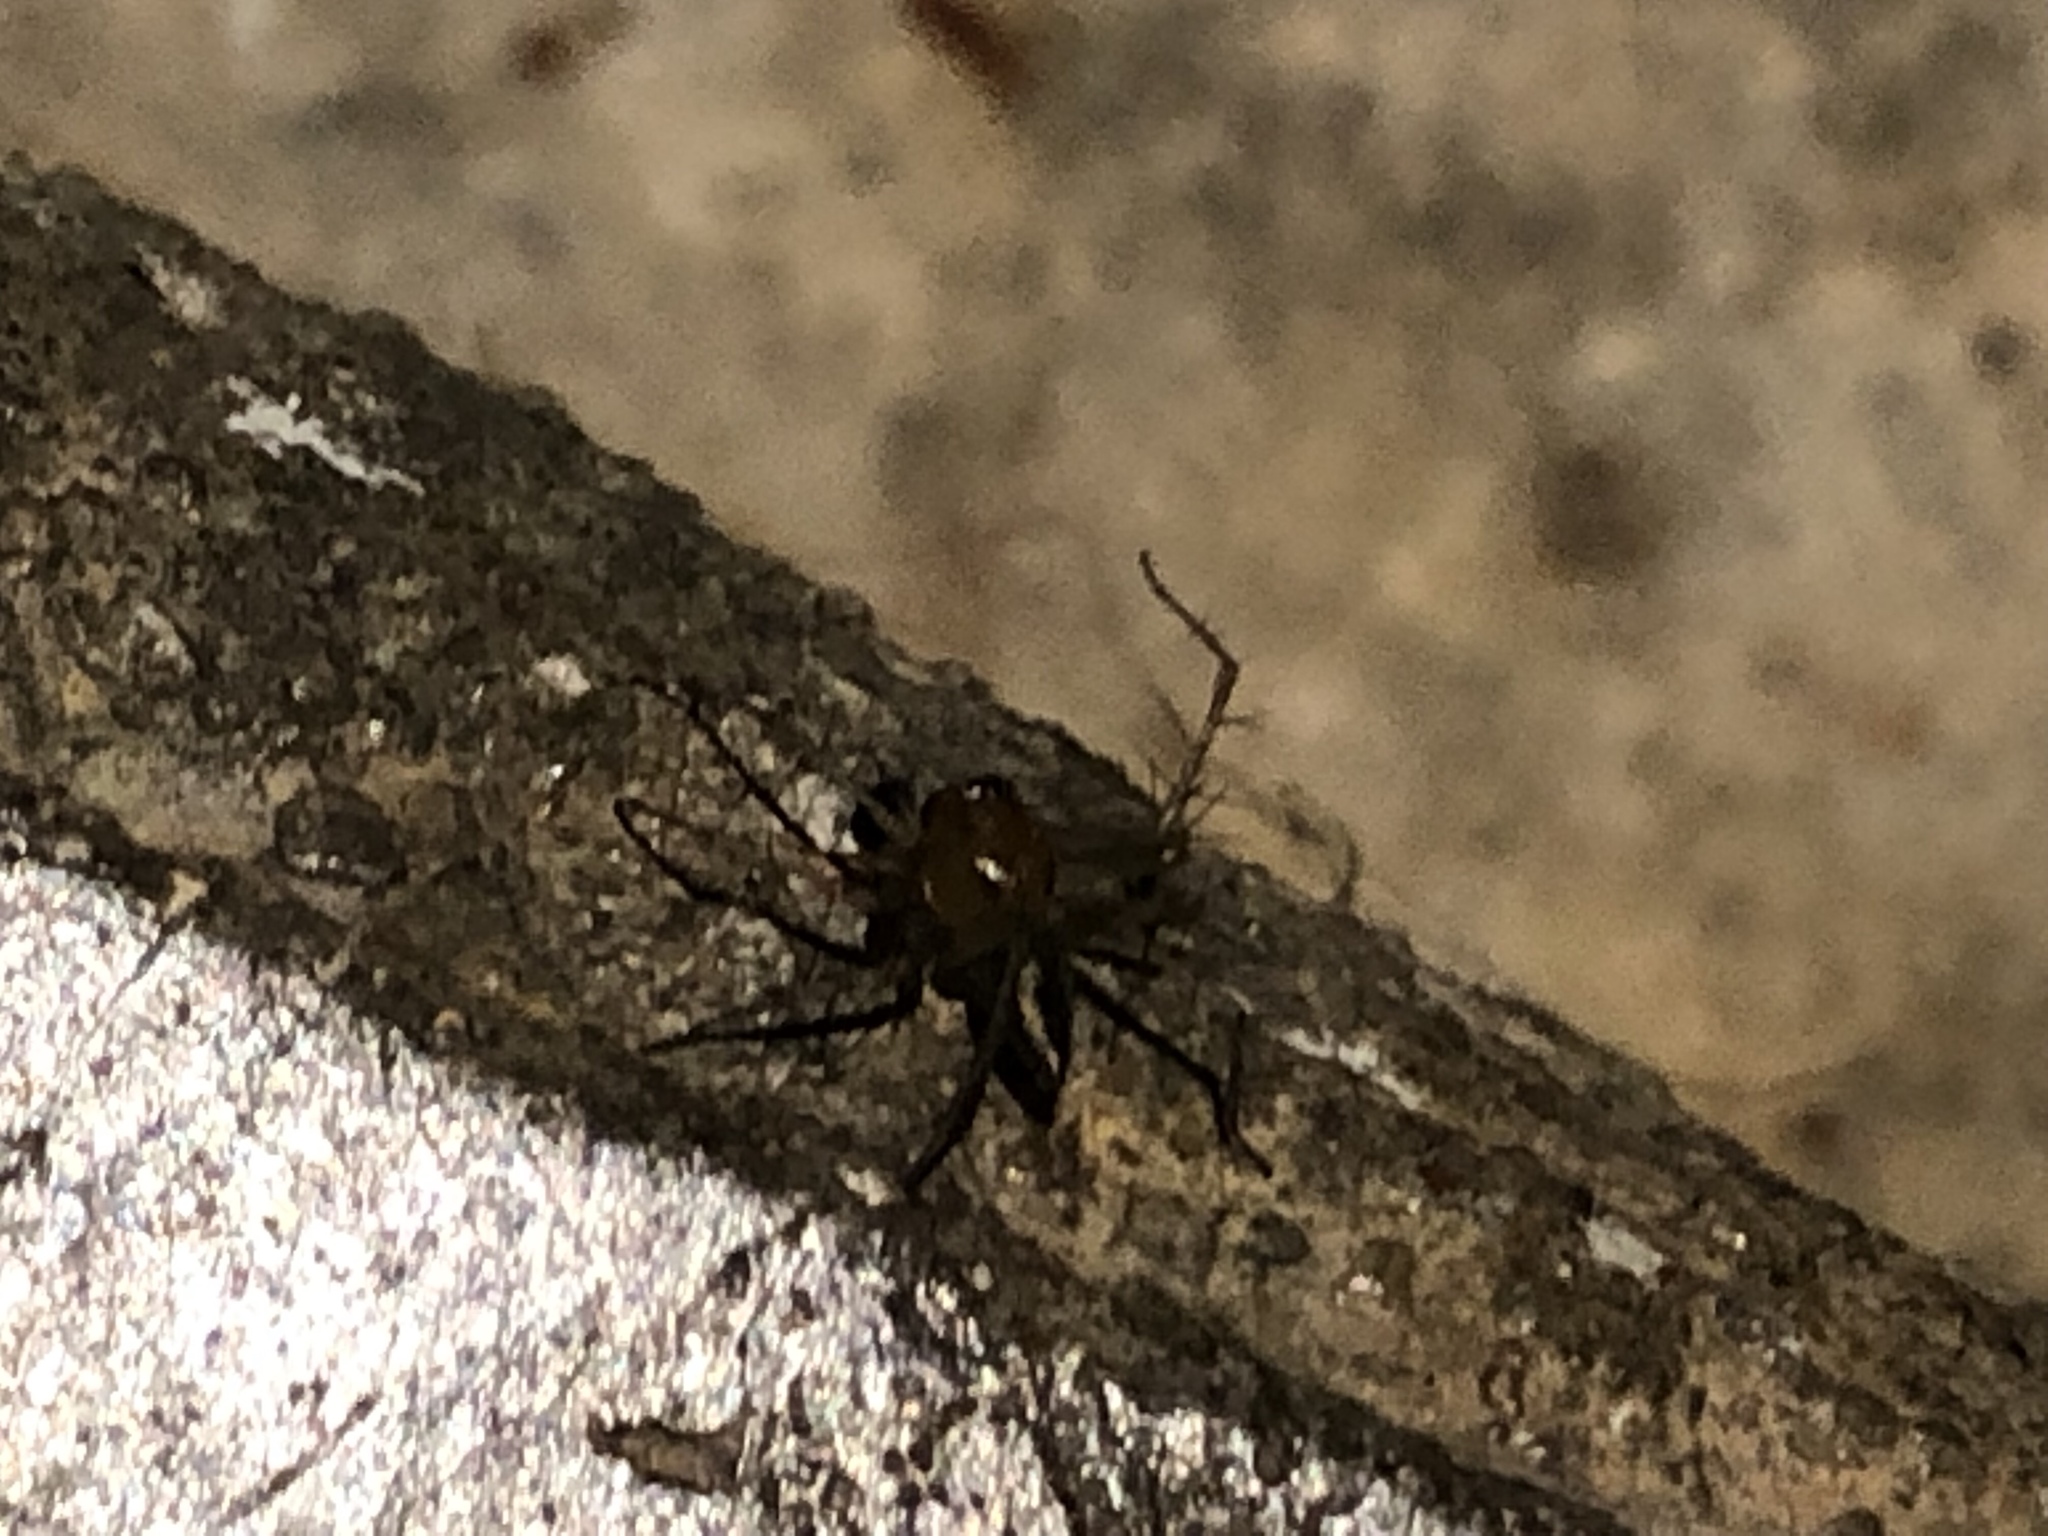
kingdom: Animalia
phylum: Arthropoda
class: Arachnida
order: Araneae
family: Oxyopidae
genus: Oxyopes
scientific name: Oxyopes salticus
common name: Lynx spiders
